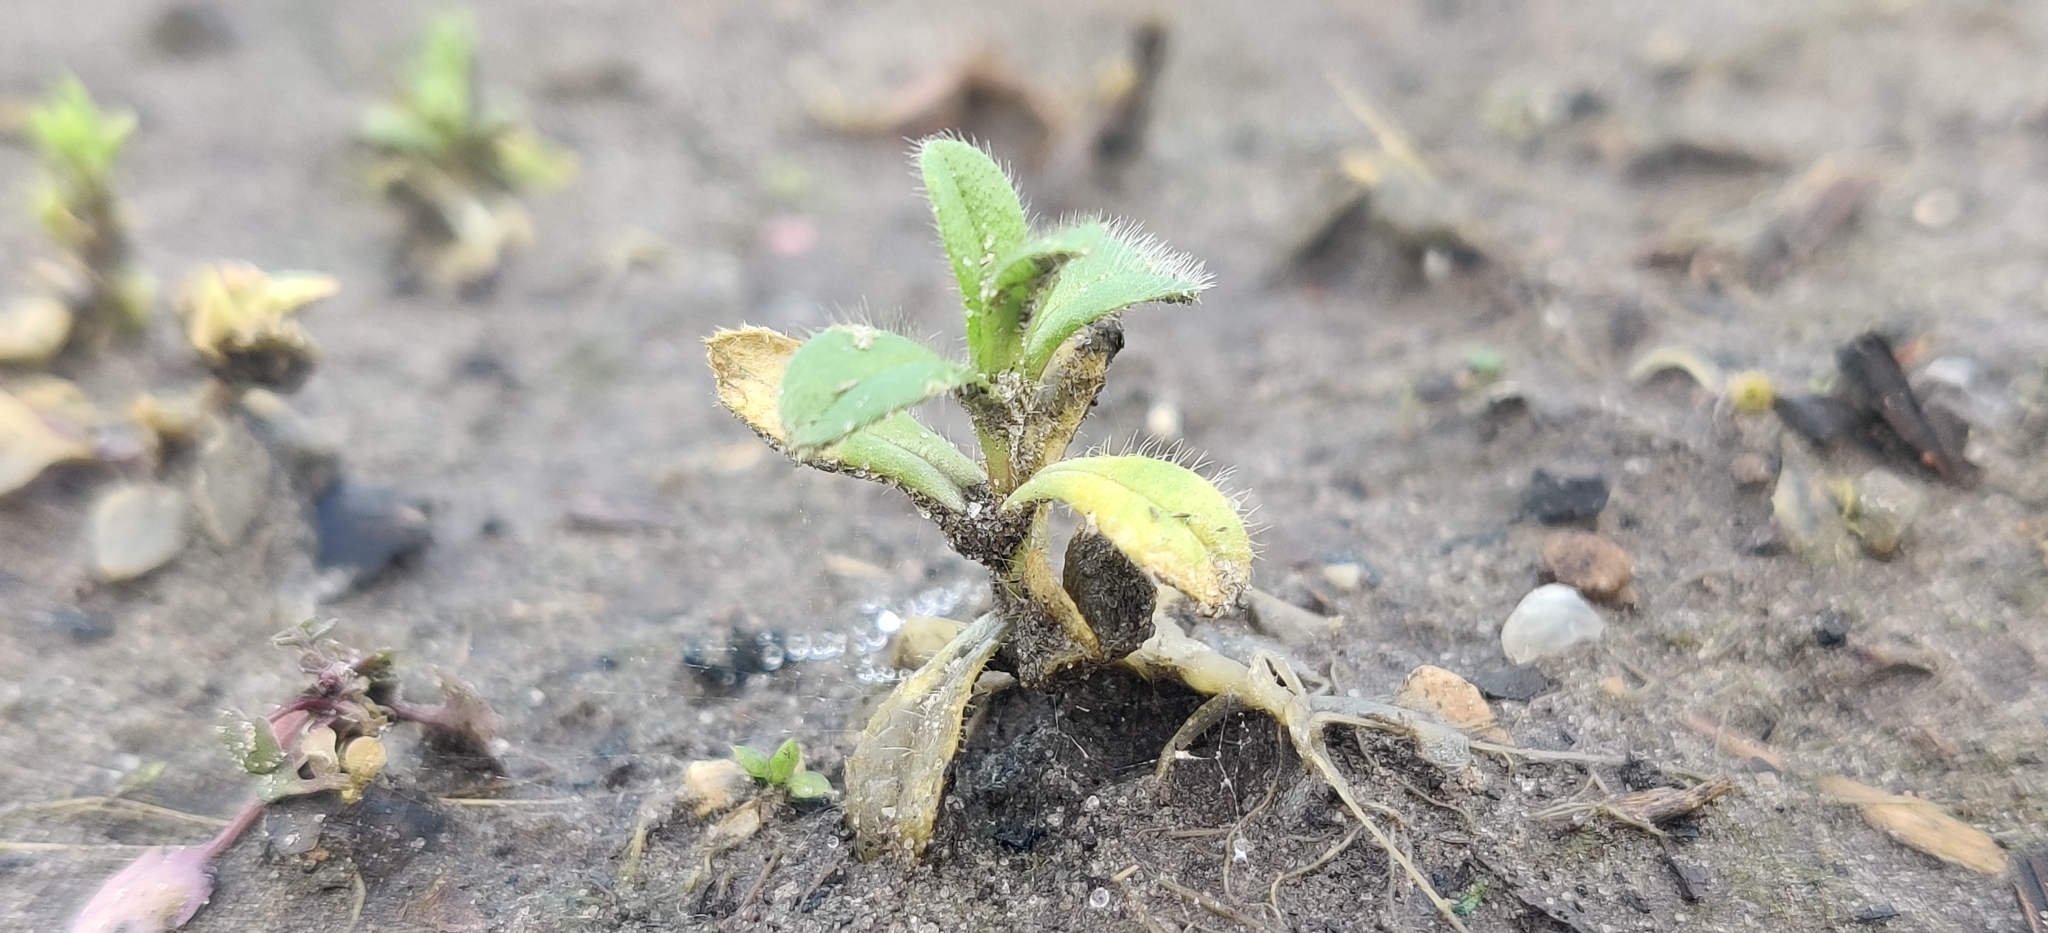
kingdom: Plantae
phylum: Tracheophyta
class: Magnoliopsida
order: Caryophyllales
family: Caryophyllaceae
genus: Cerastium
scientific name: Cerastium glomeratum
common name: Sticky chickweed
